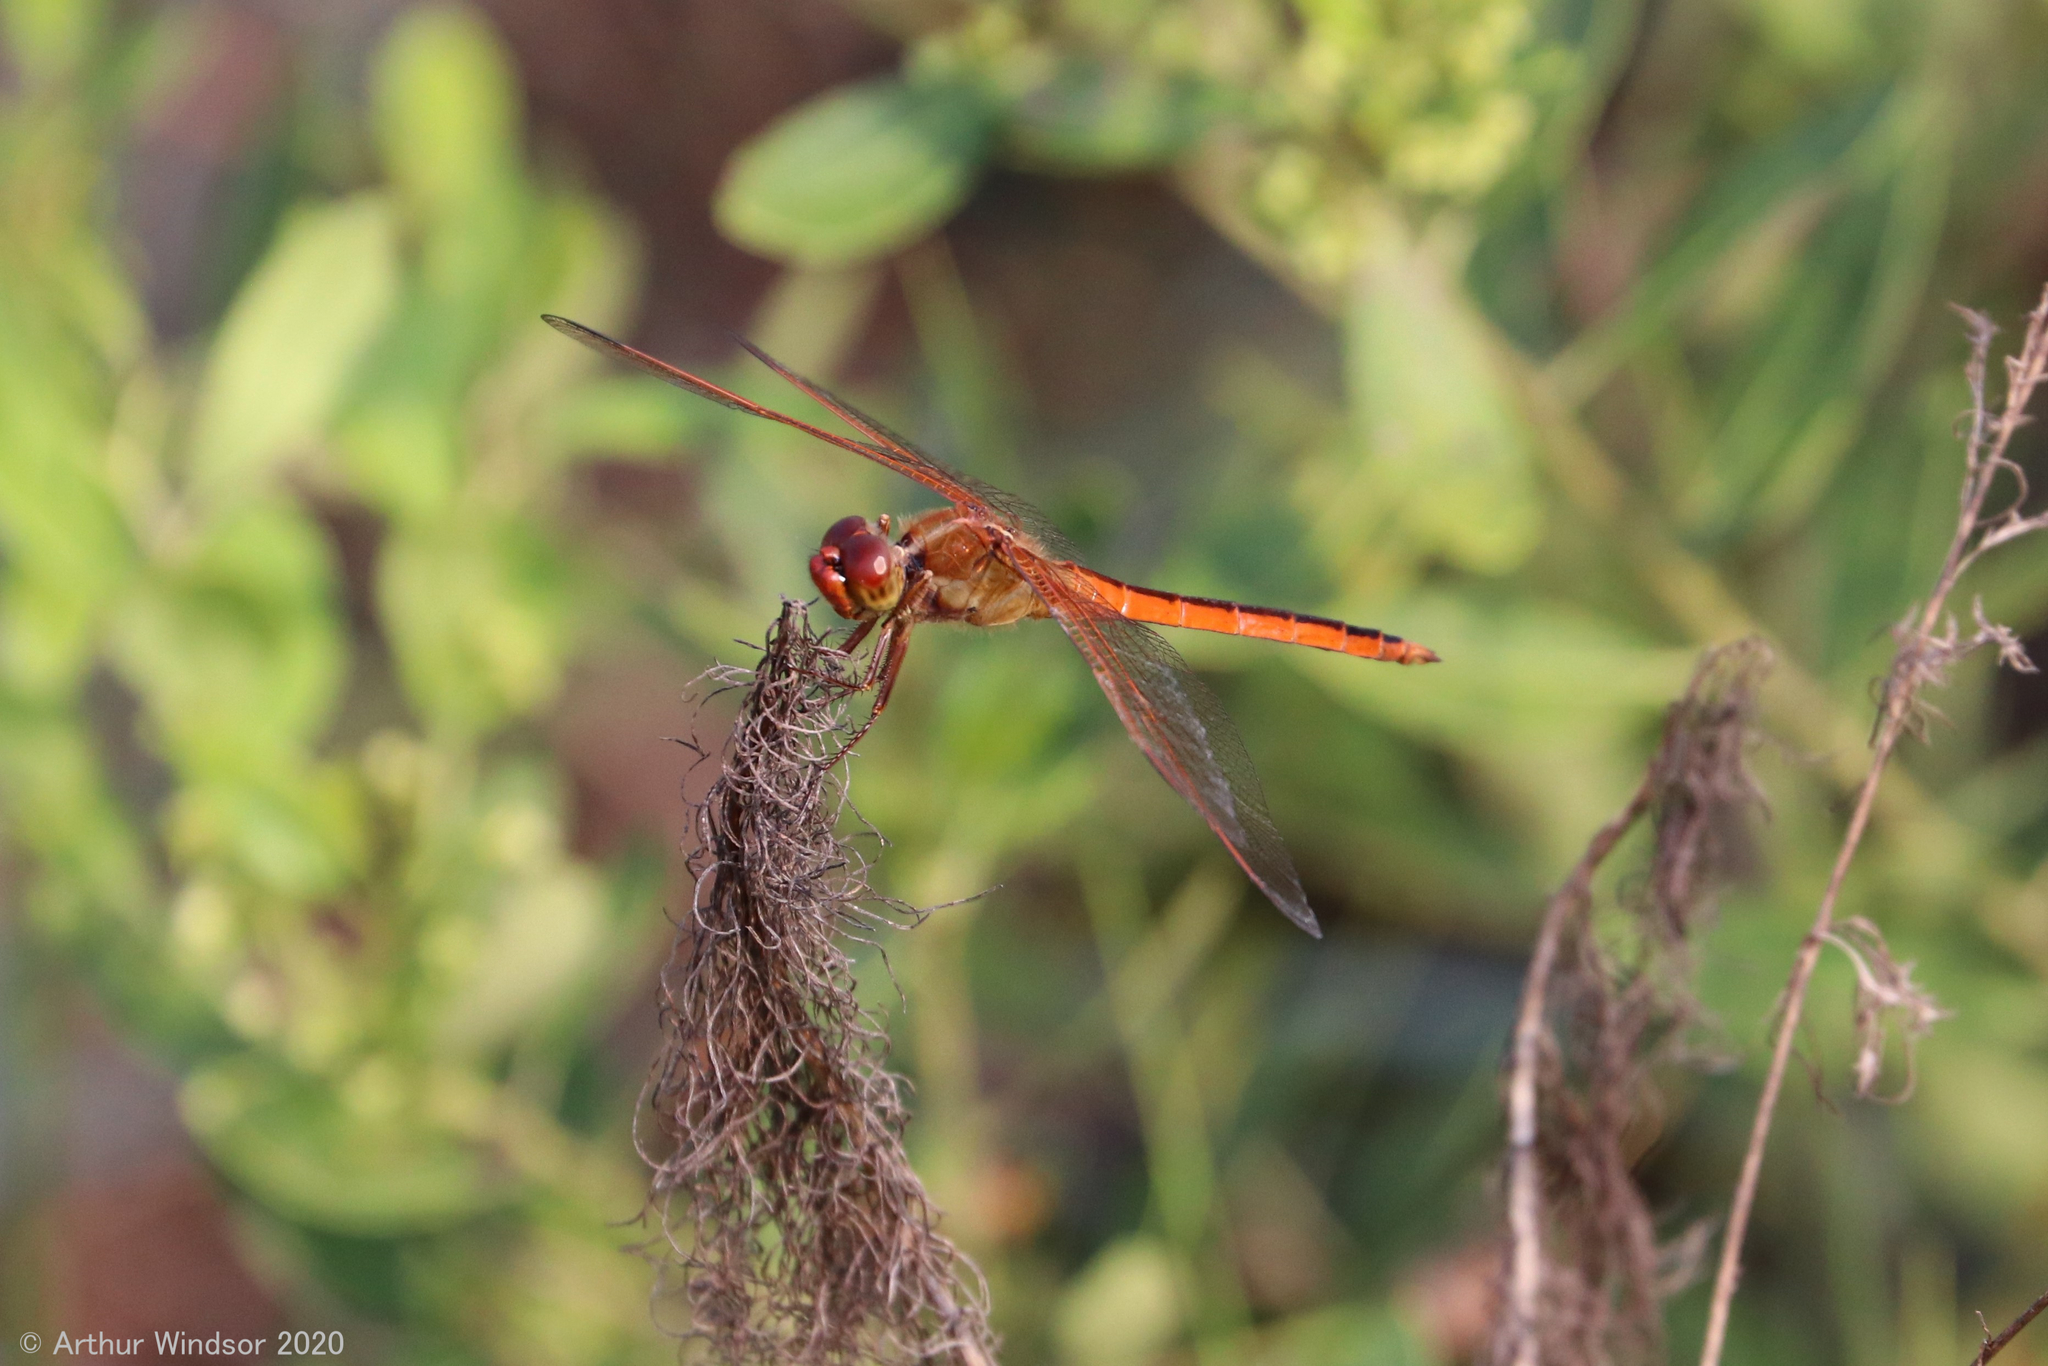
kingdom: Animalia
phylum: Arthropoda
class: Insecta
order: Odonata
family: Libellulidae
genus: Libellula
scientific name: Libellula needhami
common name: Needham's skimmer
